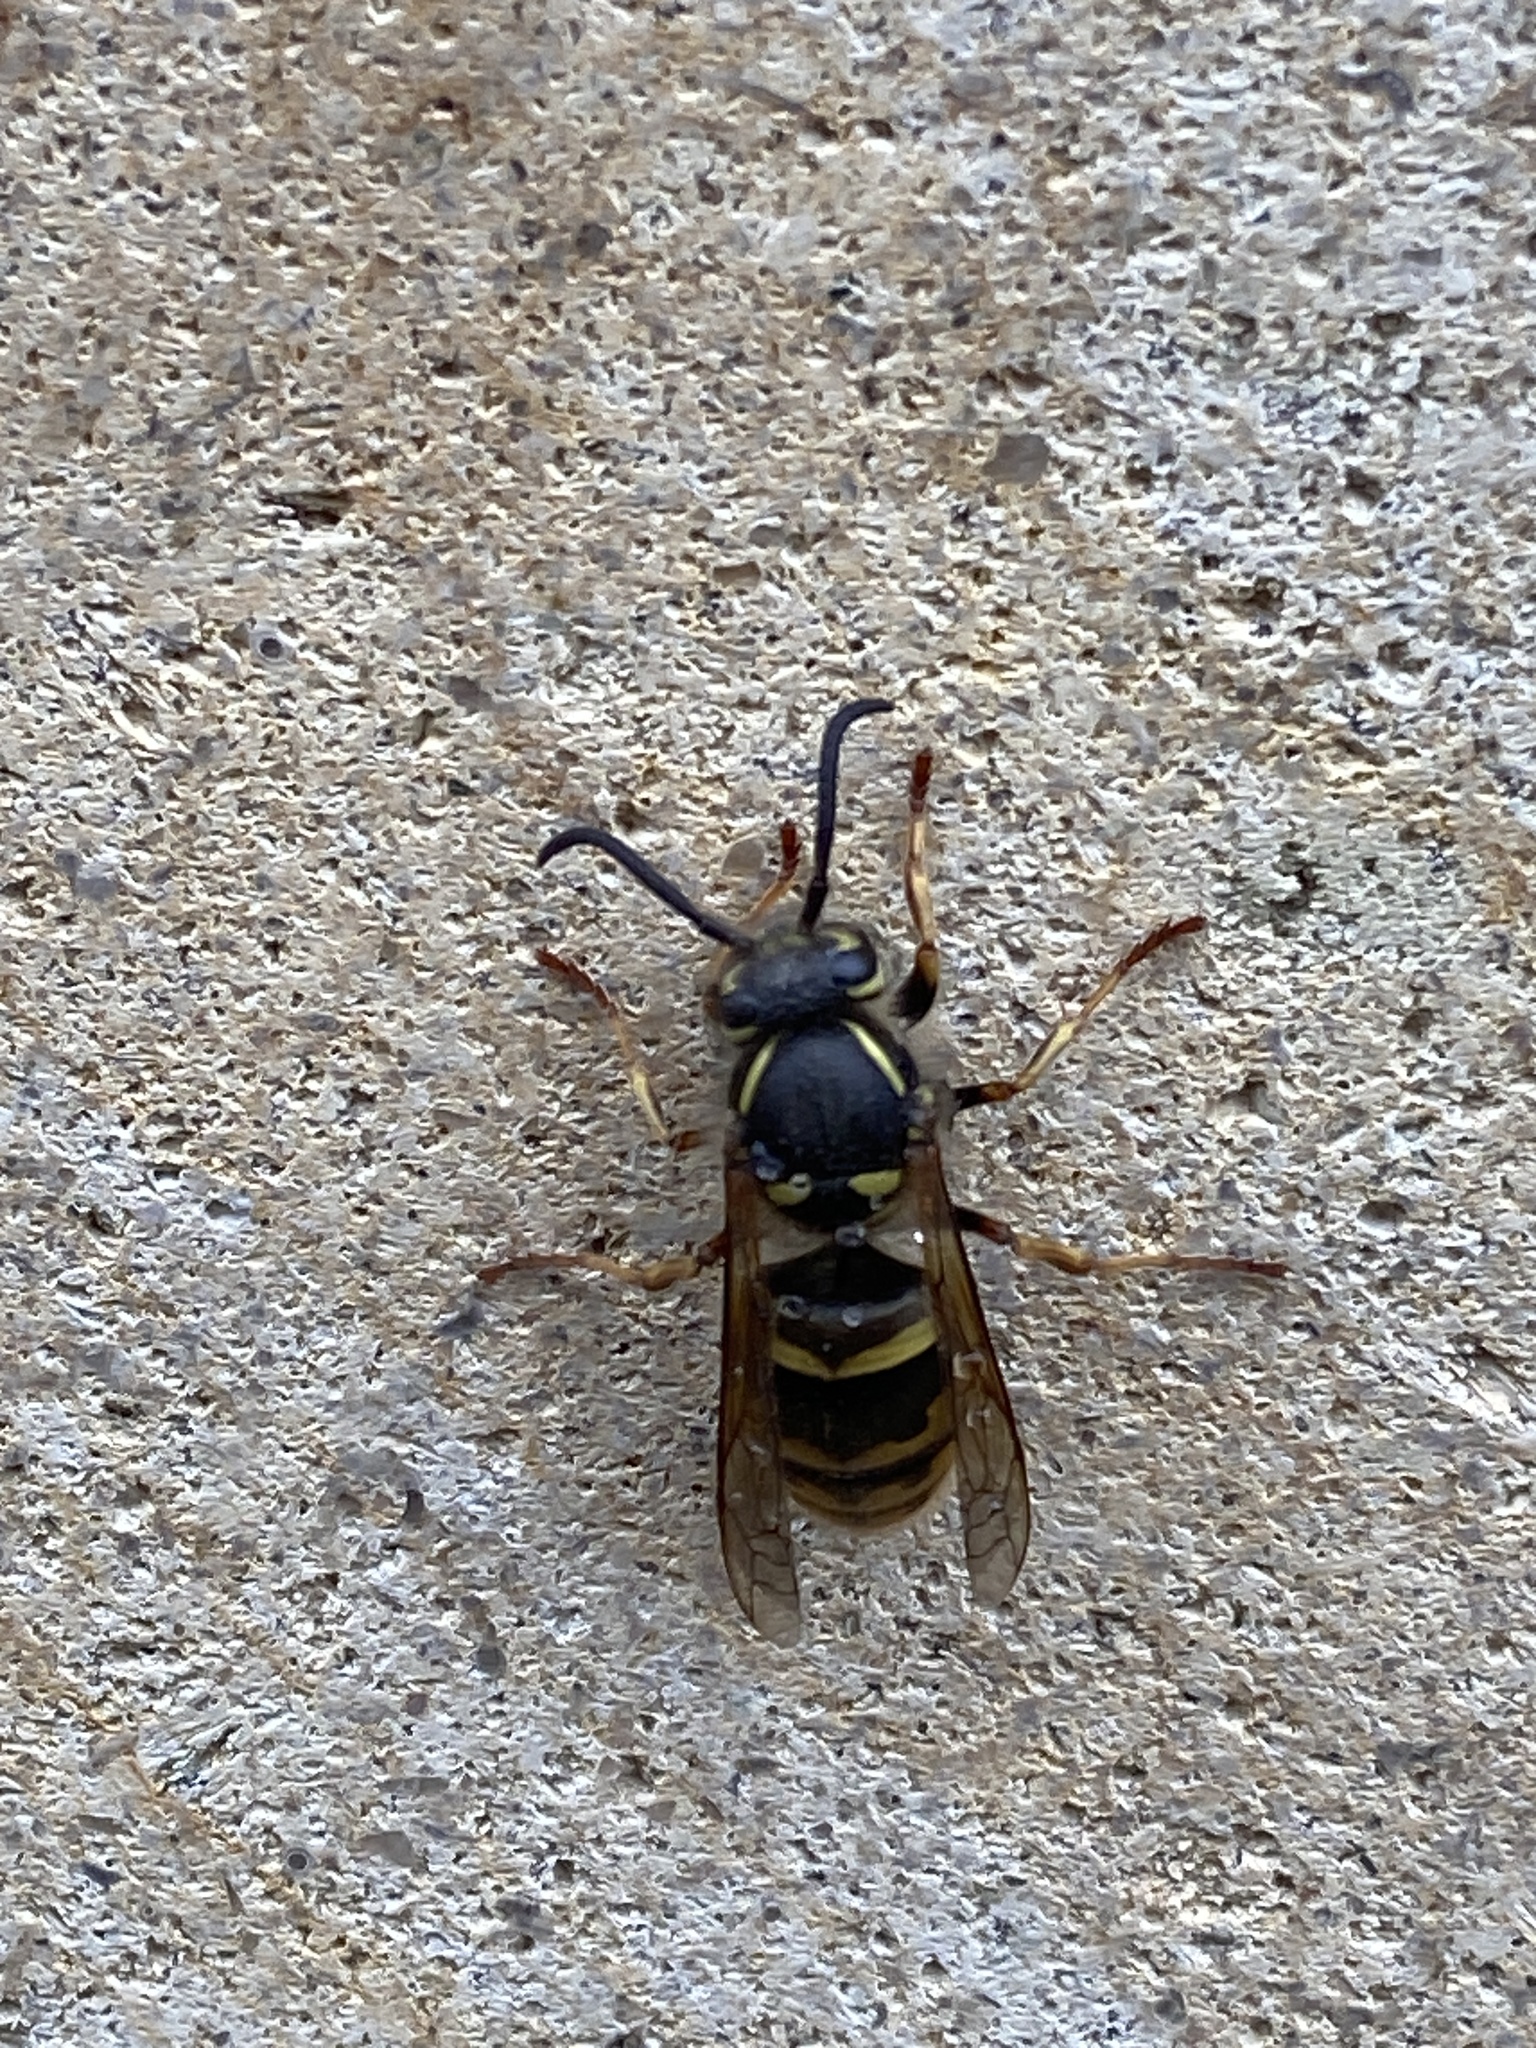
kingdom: Animalia
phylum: Arthropoda
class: Insecta
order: Hymenoptera
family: Vespidae
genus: Vespula
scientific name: Vespula vulgaris
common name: Common wasp
